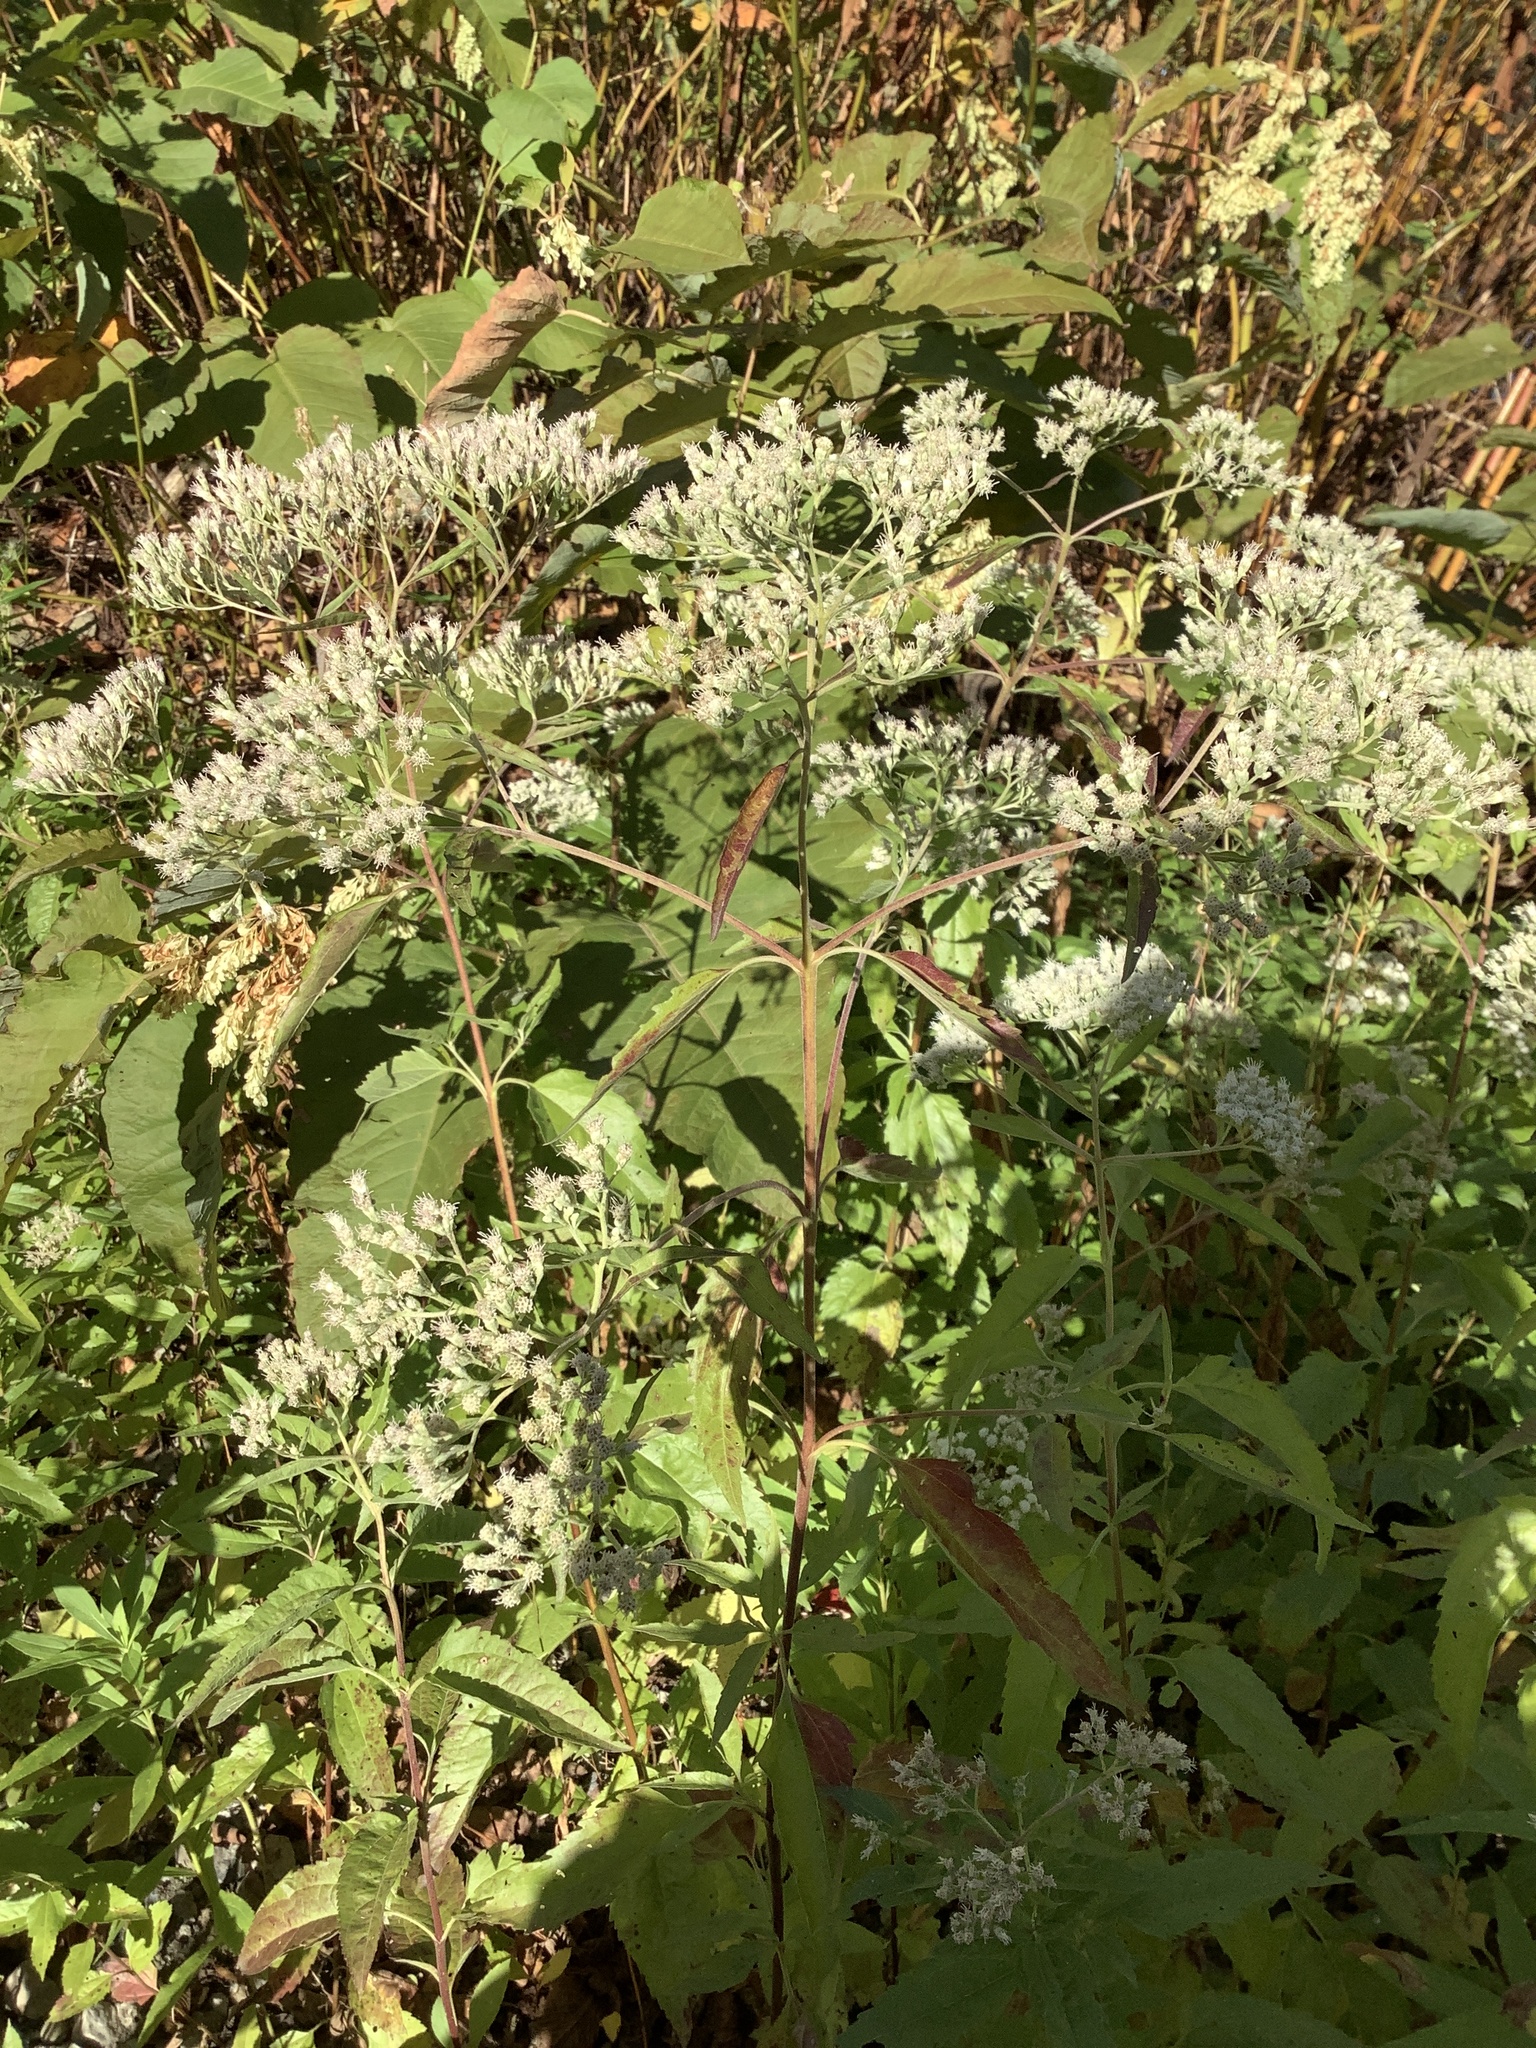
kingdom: Plantae
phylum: Tracheophyta
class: Magnoliopsida
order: Asterales
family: Asteraceae
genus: Eupatorium
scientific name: Eupatorium serotinum
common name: Late boneset
